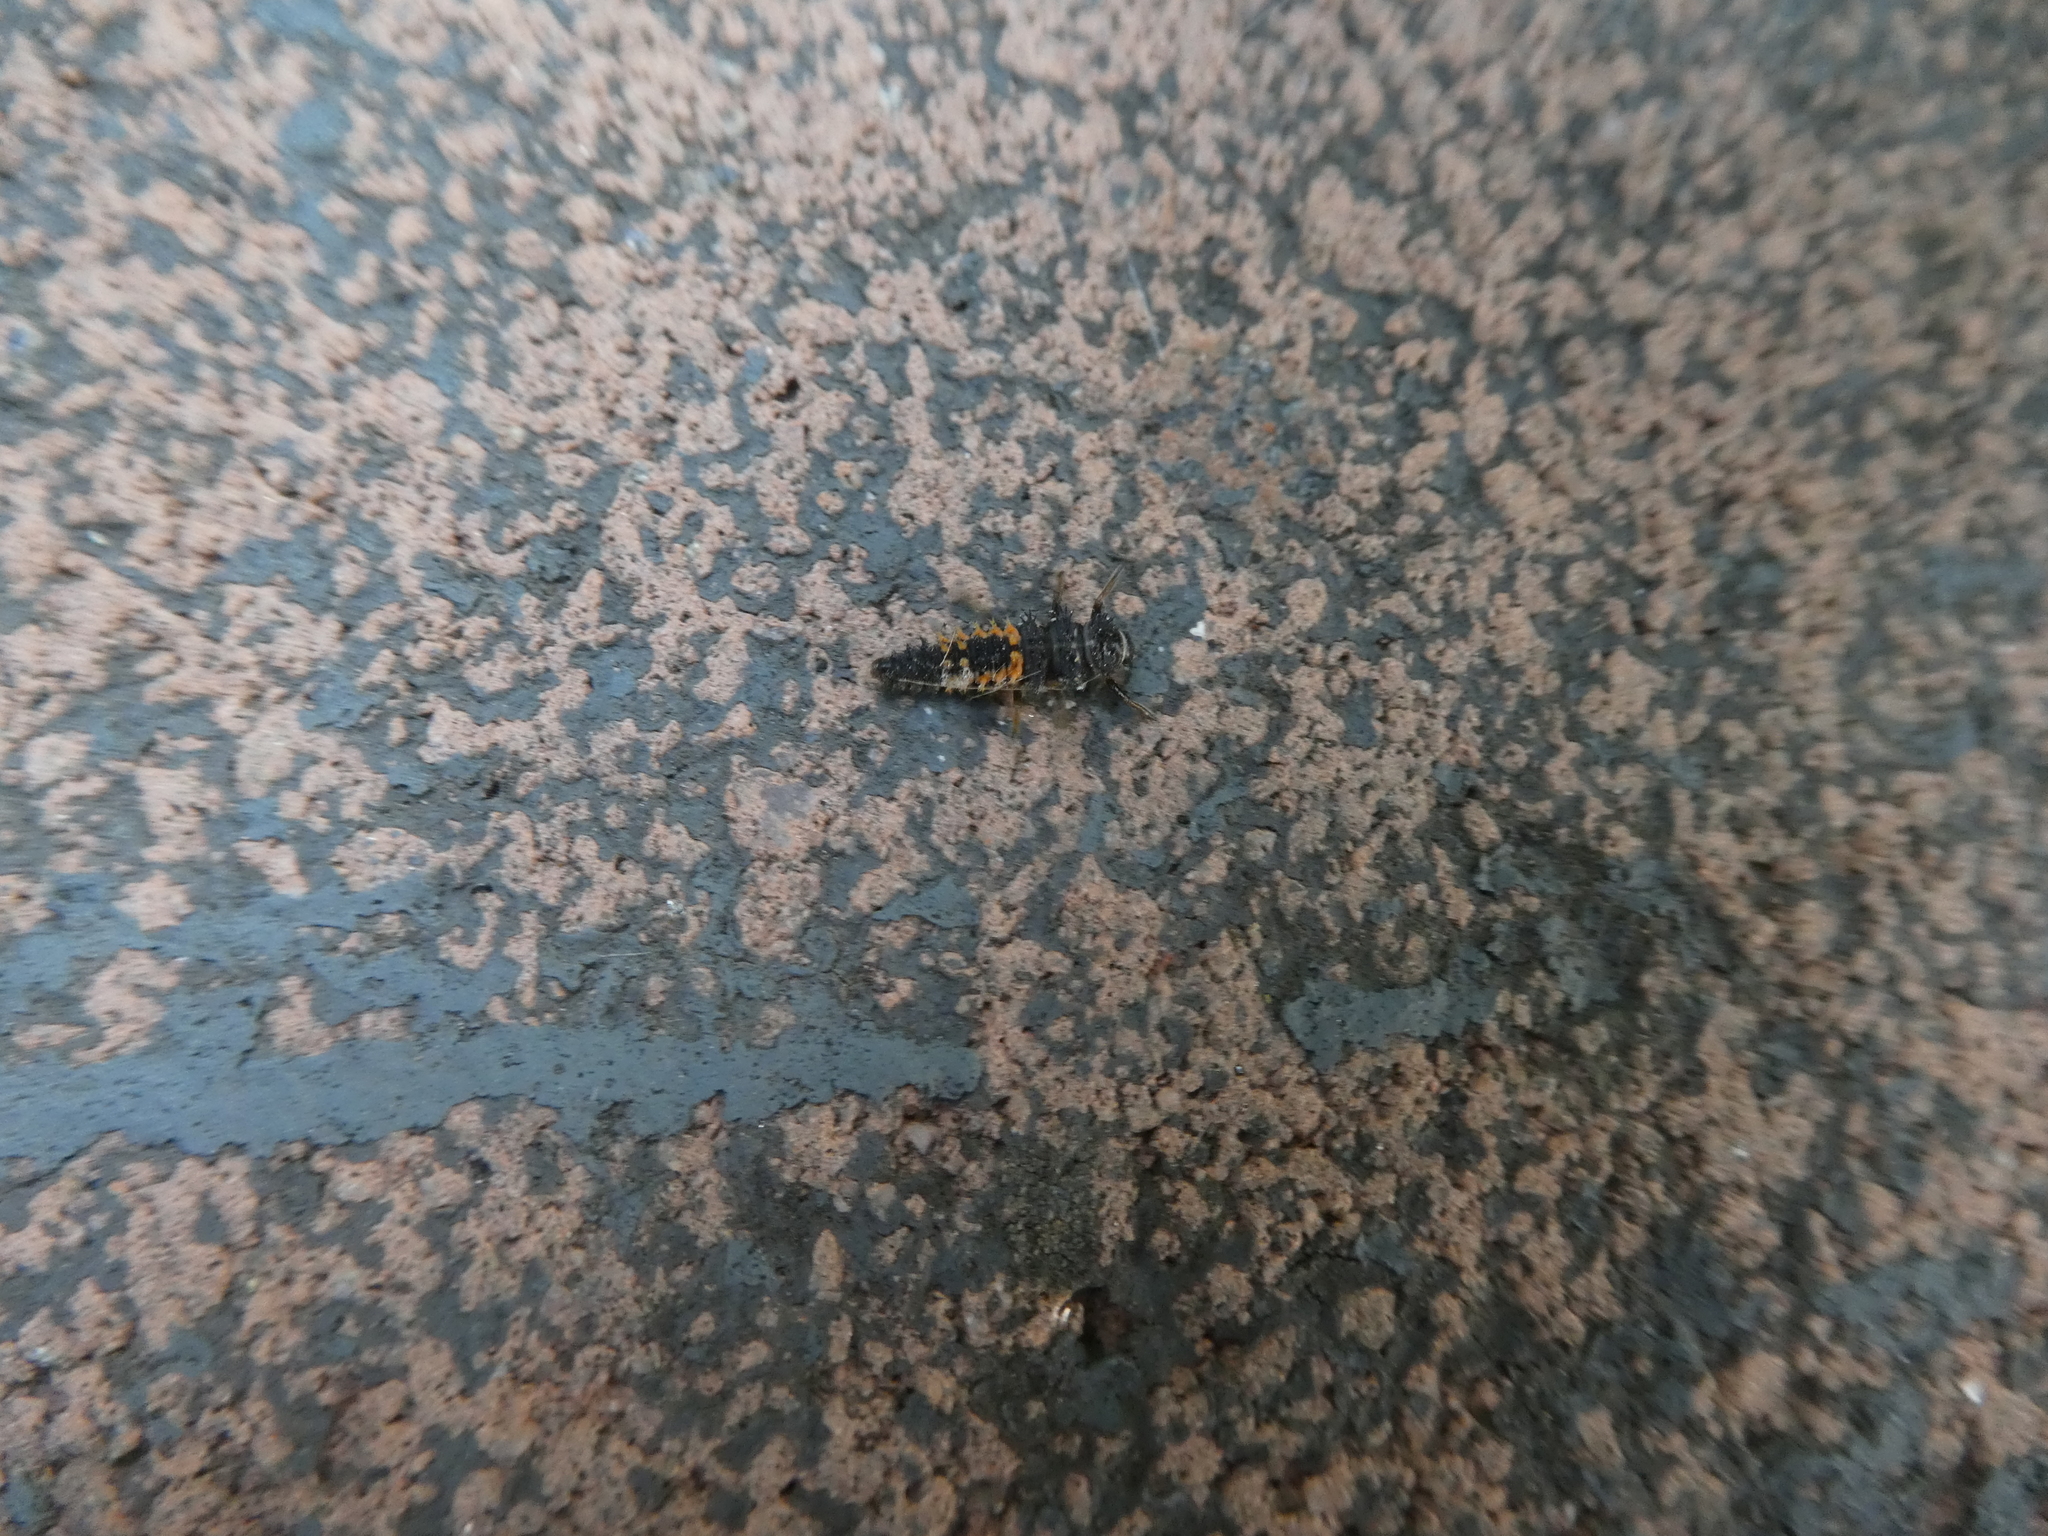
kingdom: Animalia
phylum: Arthropoda
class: Insecta
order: Coleoptera
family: Coccinellidae
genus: Harmonia
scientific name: Harmonia axyridis
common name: Harlequin ladybird
